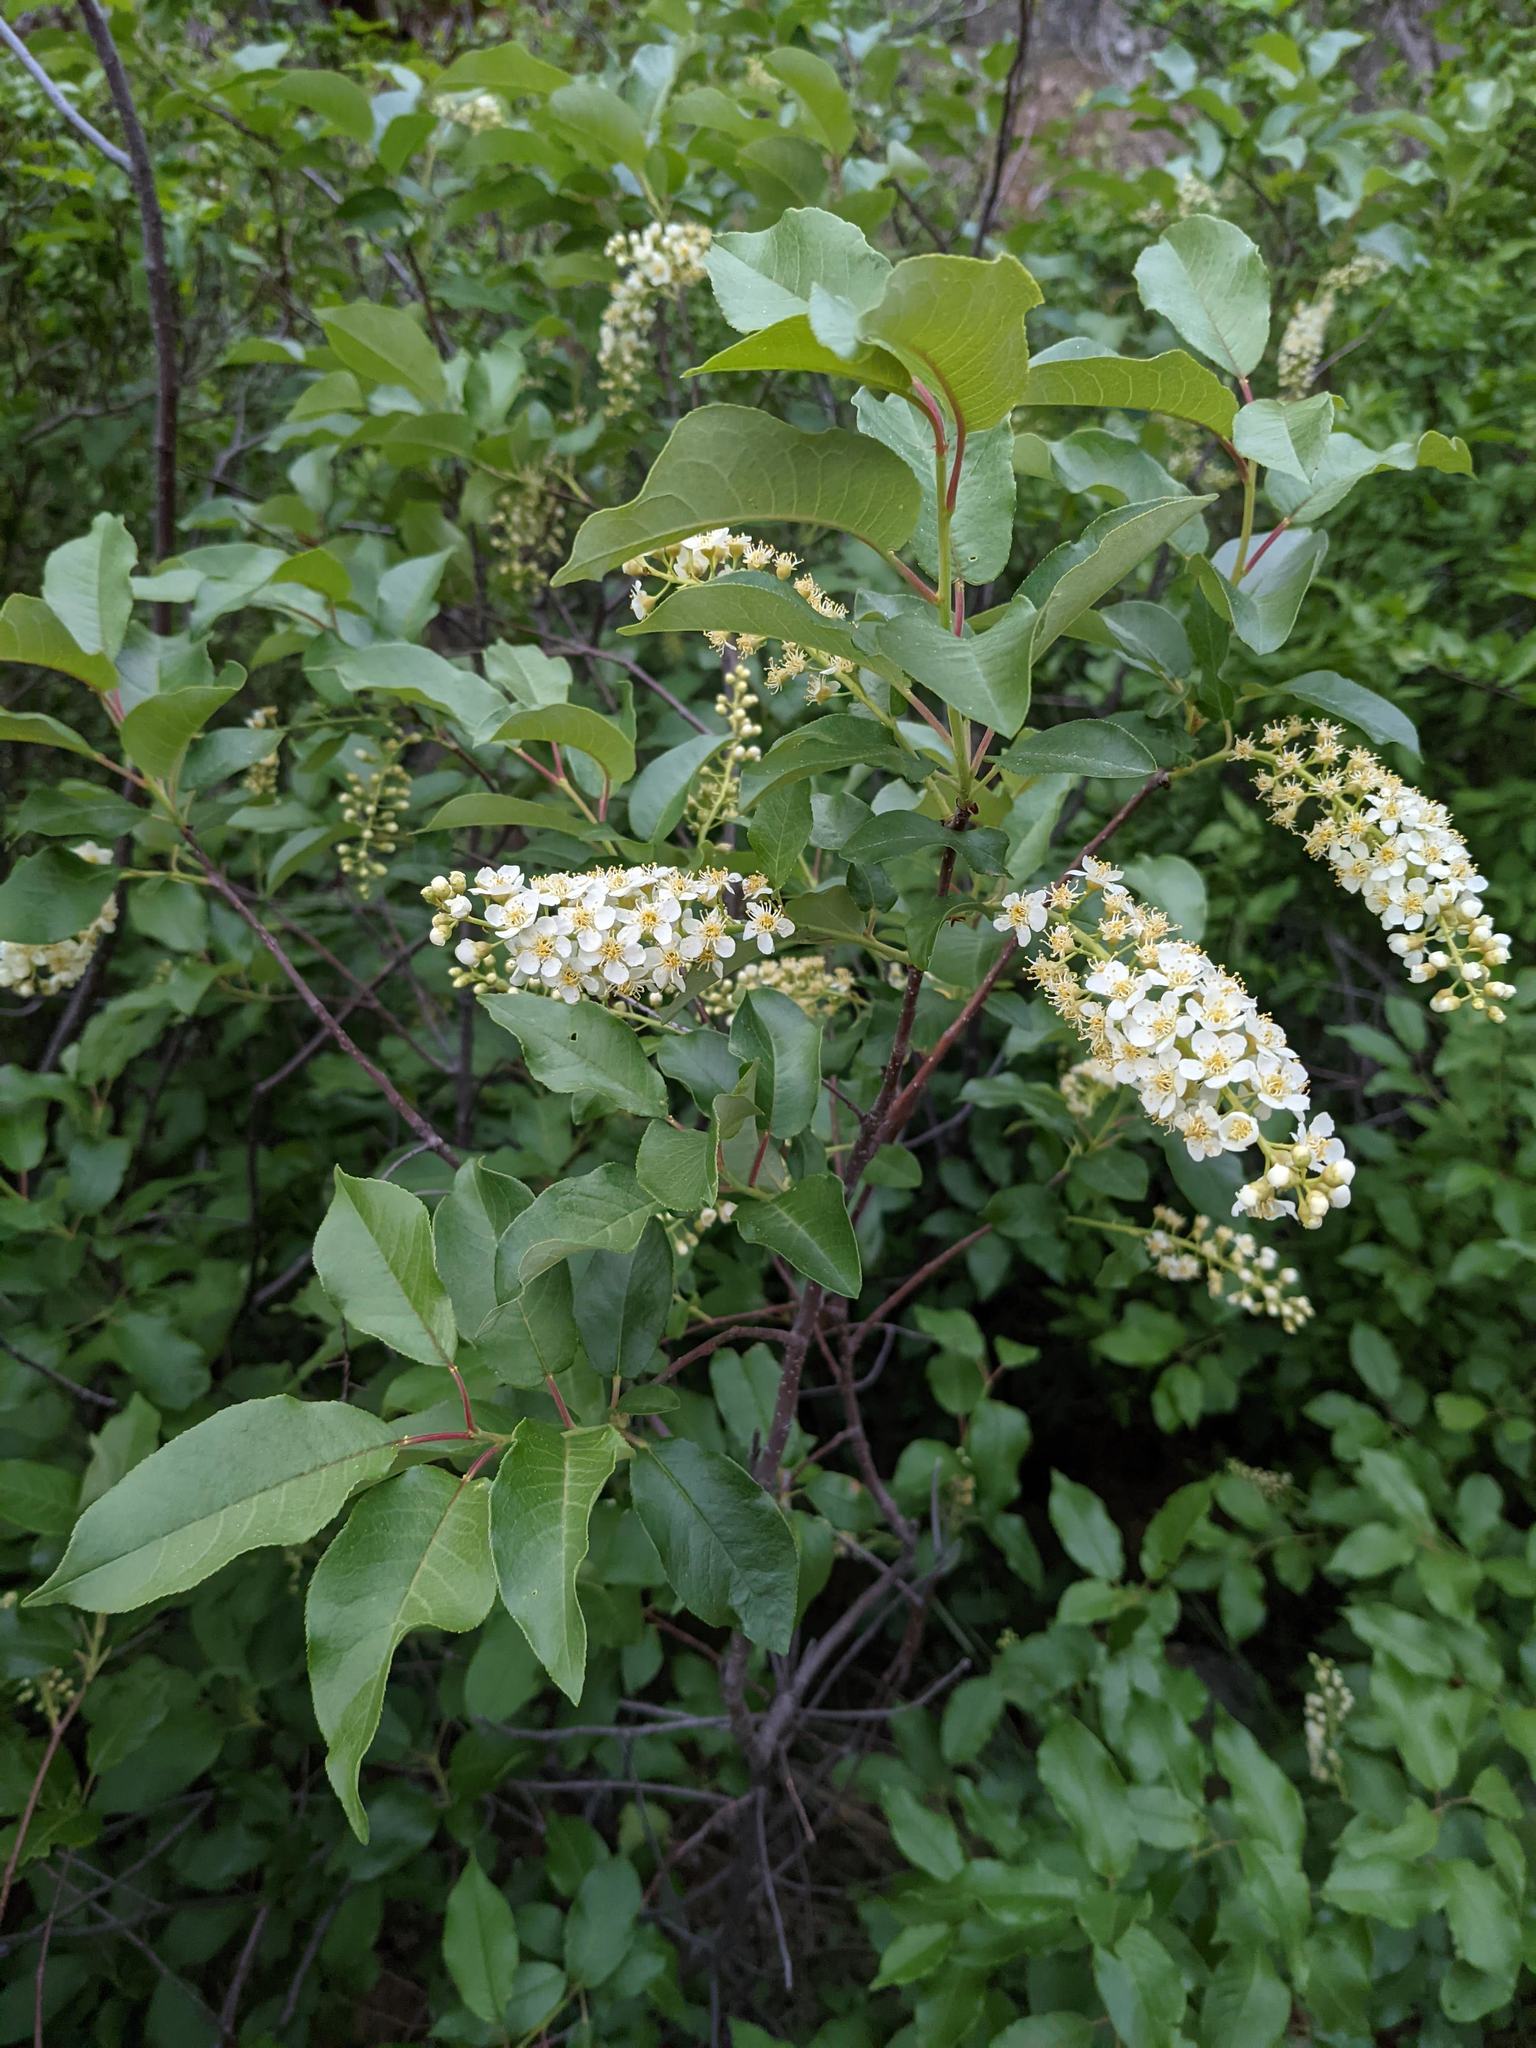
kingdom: Plantae
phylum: Tracheophyta
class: Magnoliopsida
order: Rosales
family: Rosaceae
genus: Prunus
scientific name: Prunus virginiana
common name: Chokecherry
